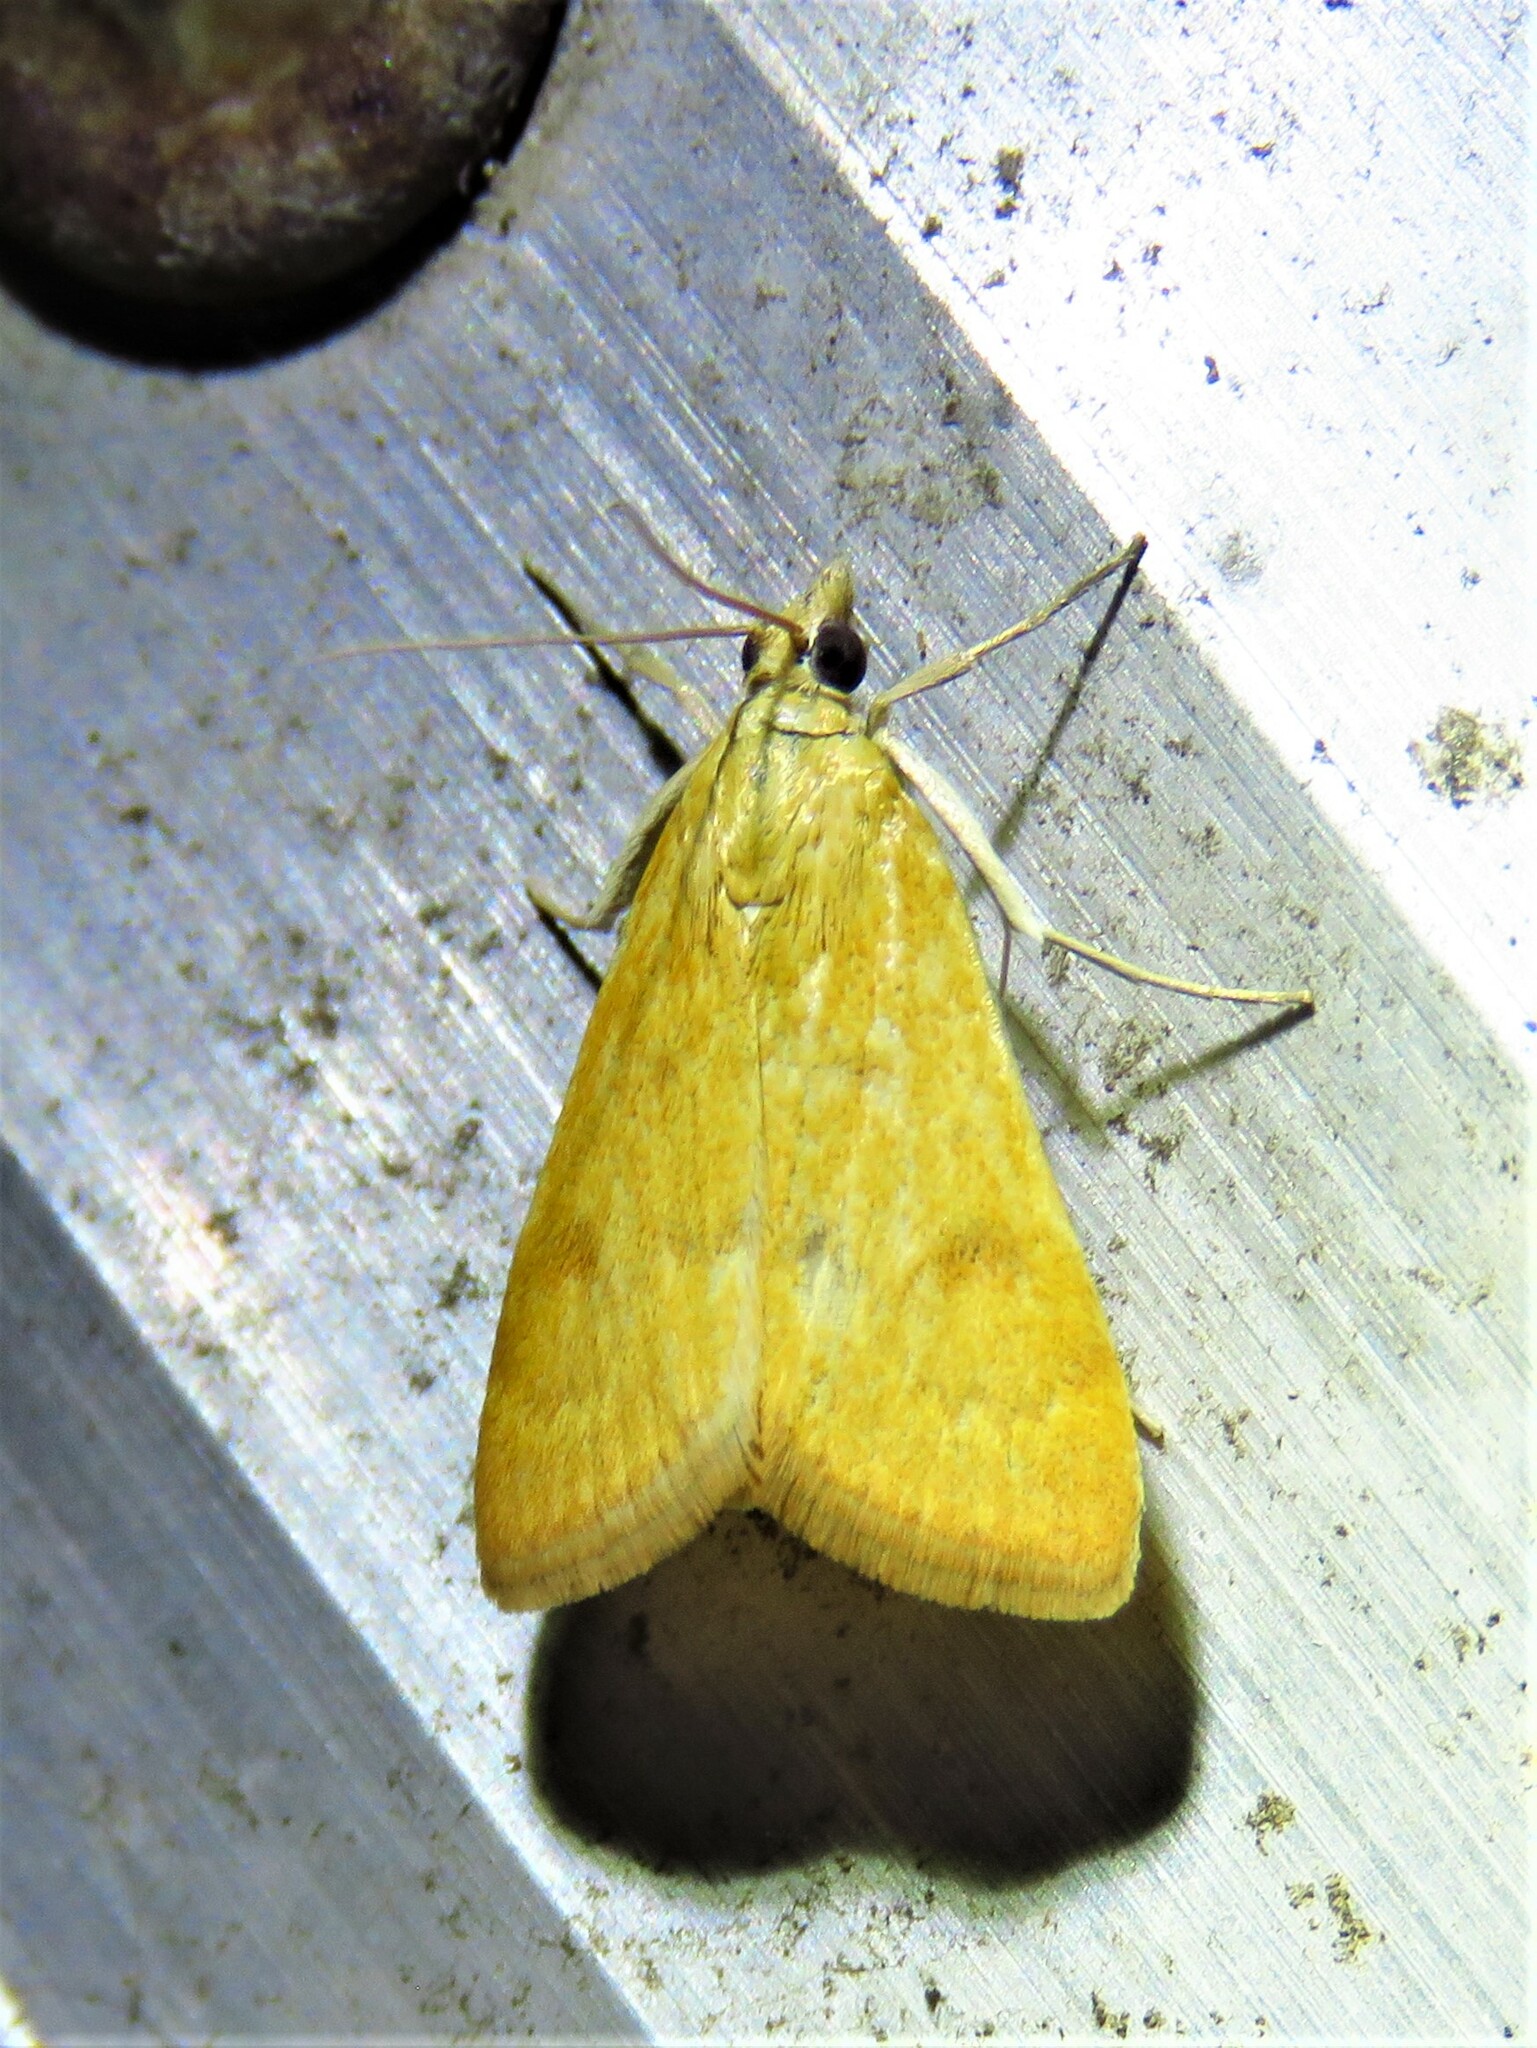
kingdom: Animalia
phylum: Arthropoda
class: Insecta
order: Lepidoptera
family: Crambidae
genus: Achyra
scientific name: Achyra rantalis
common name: Garden webworm
